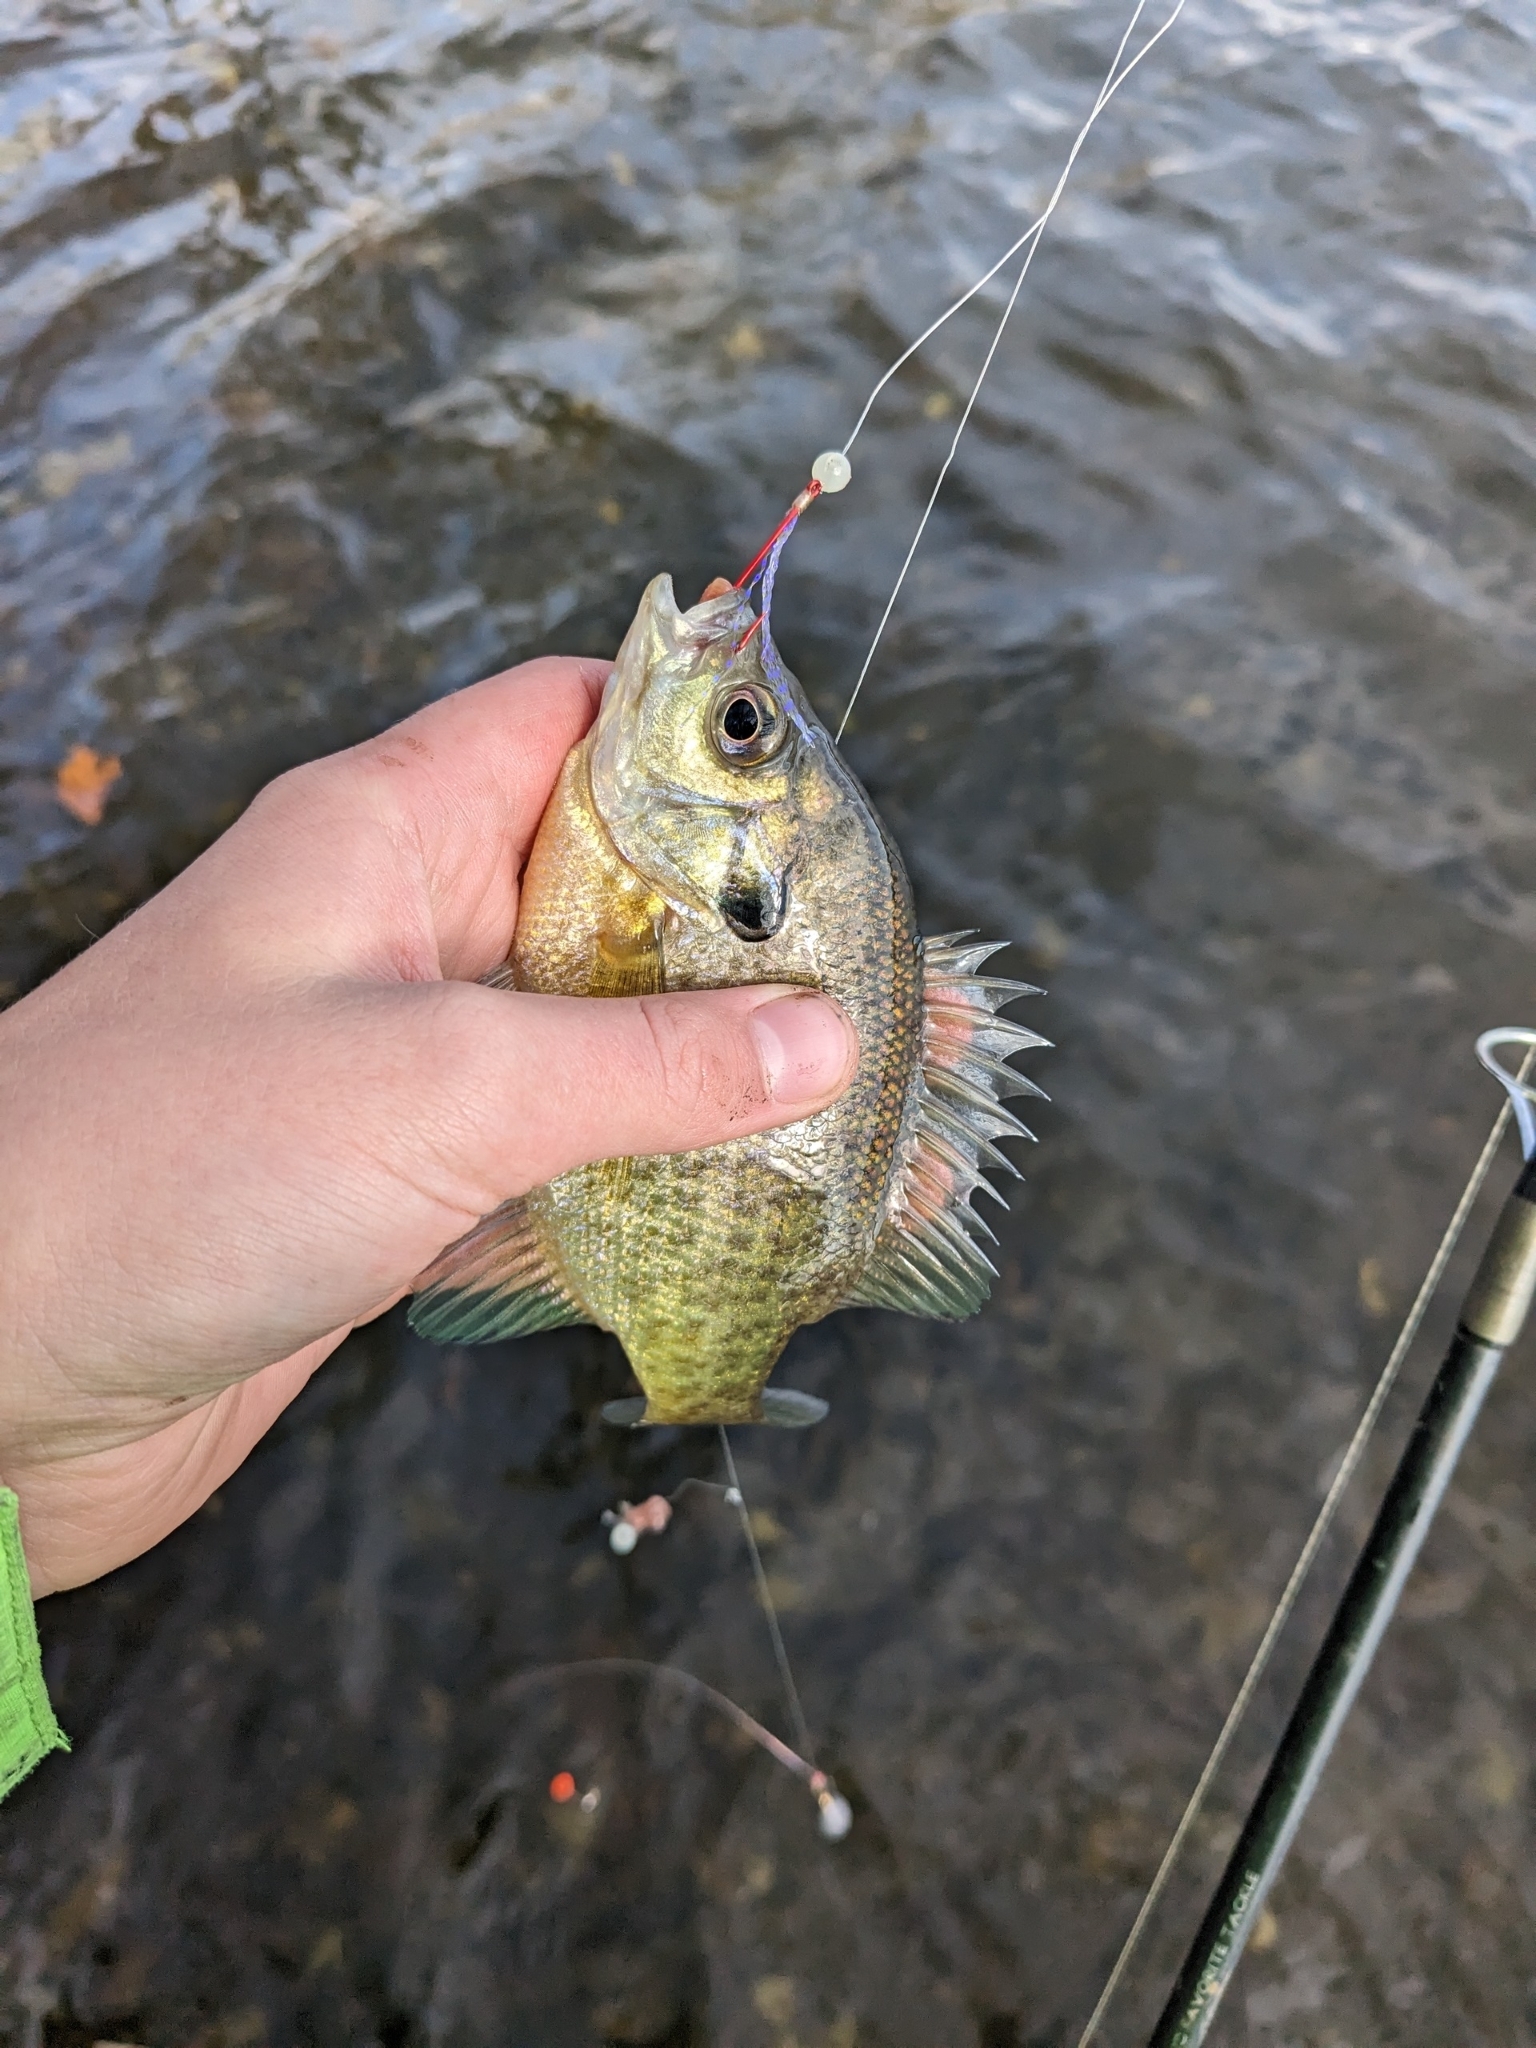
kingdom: Animalia
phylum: Chordata
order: Perciformes
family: Centrarchidae
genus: Lepomis
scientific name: Lepomis macrochirus
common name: Bluegill
